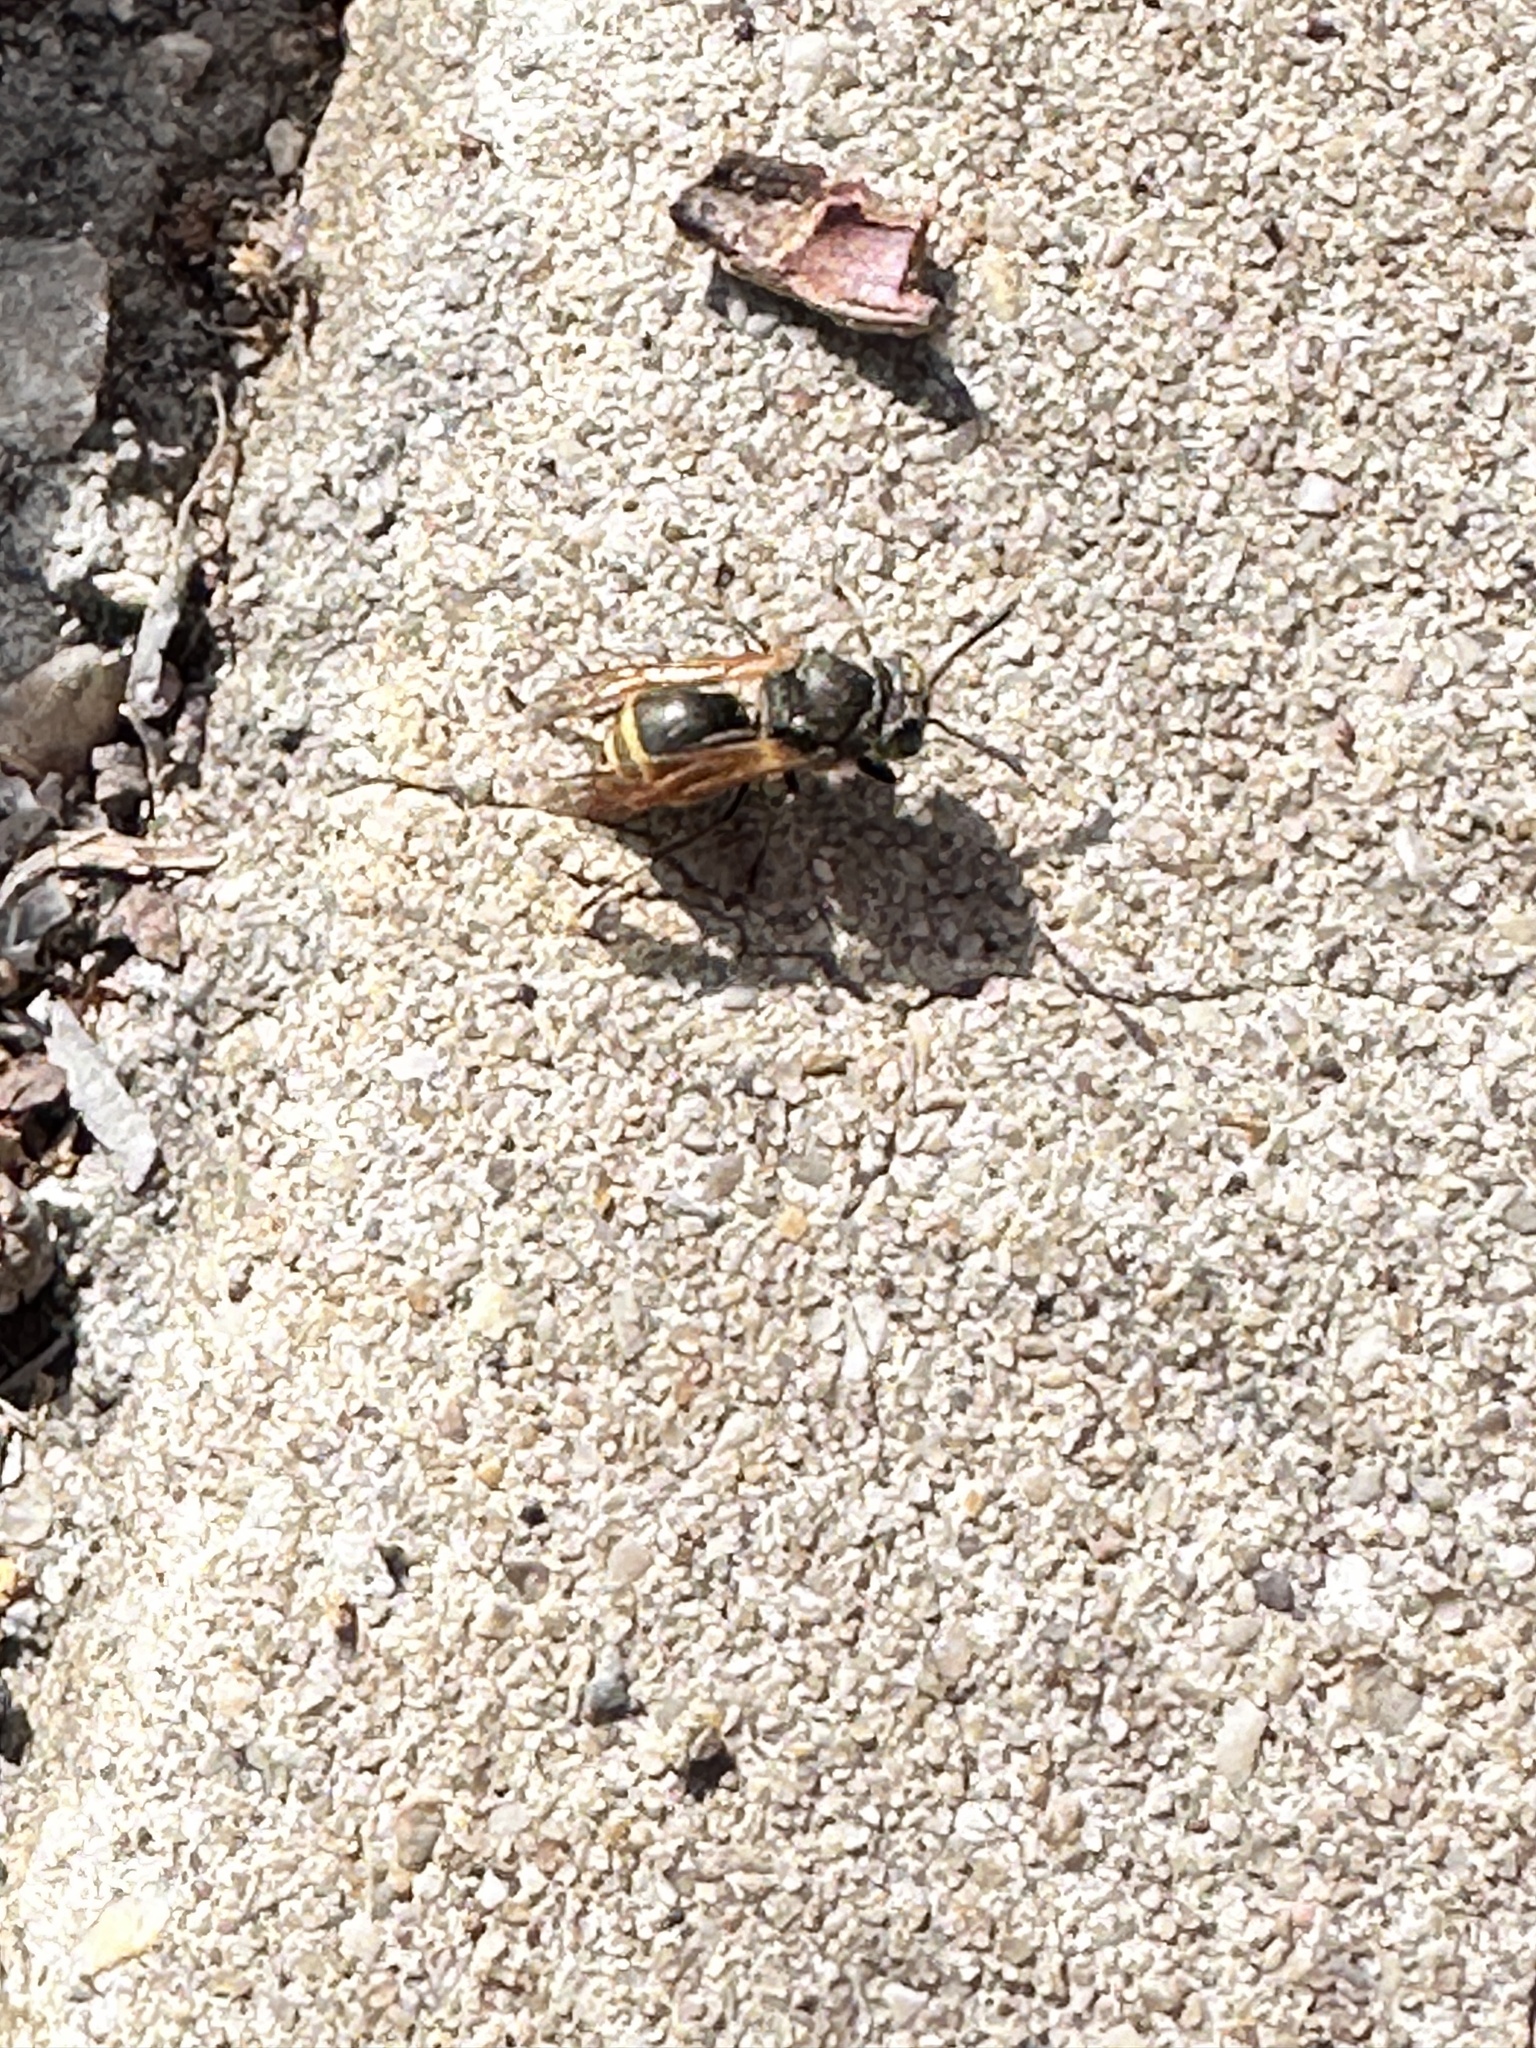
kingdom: Animalia
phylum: Arthropoda
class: Insecta
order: Hymenoptera
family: Vespidae
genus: Brachygastra
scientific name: Brachygastra mellifica
